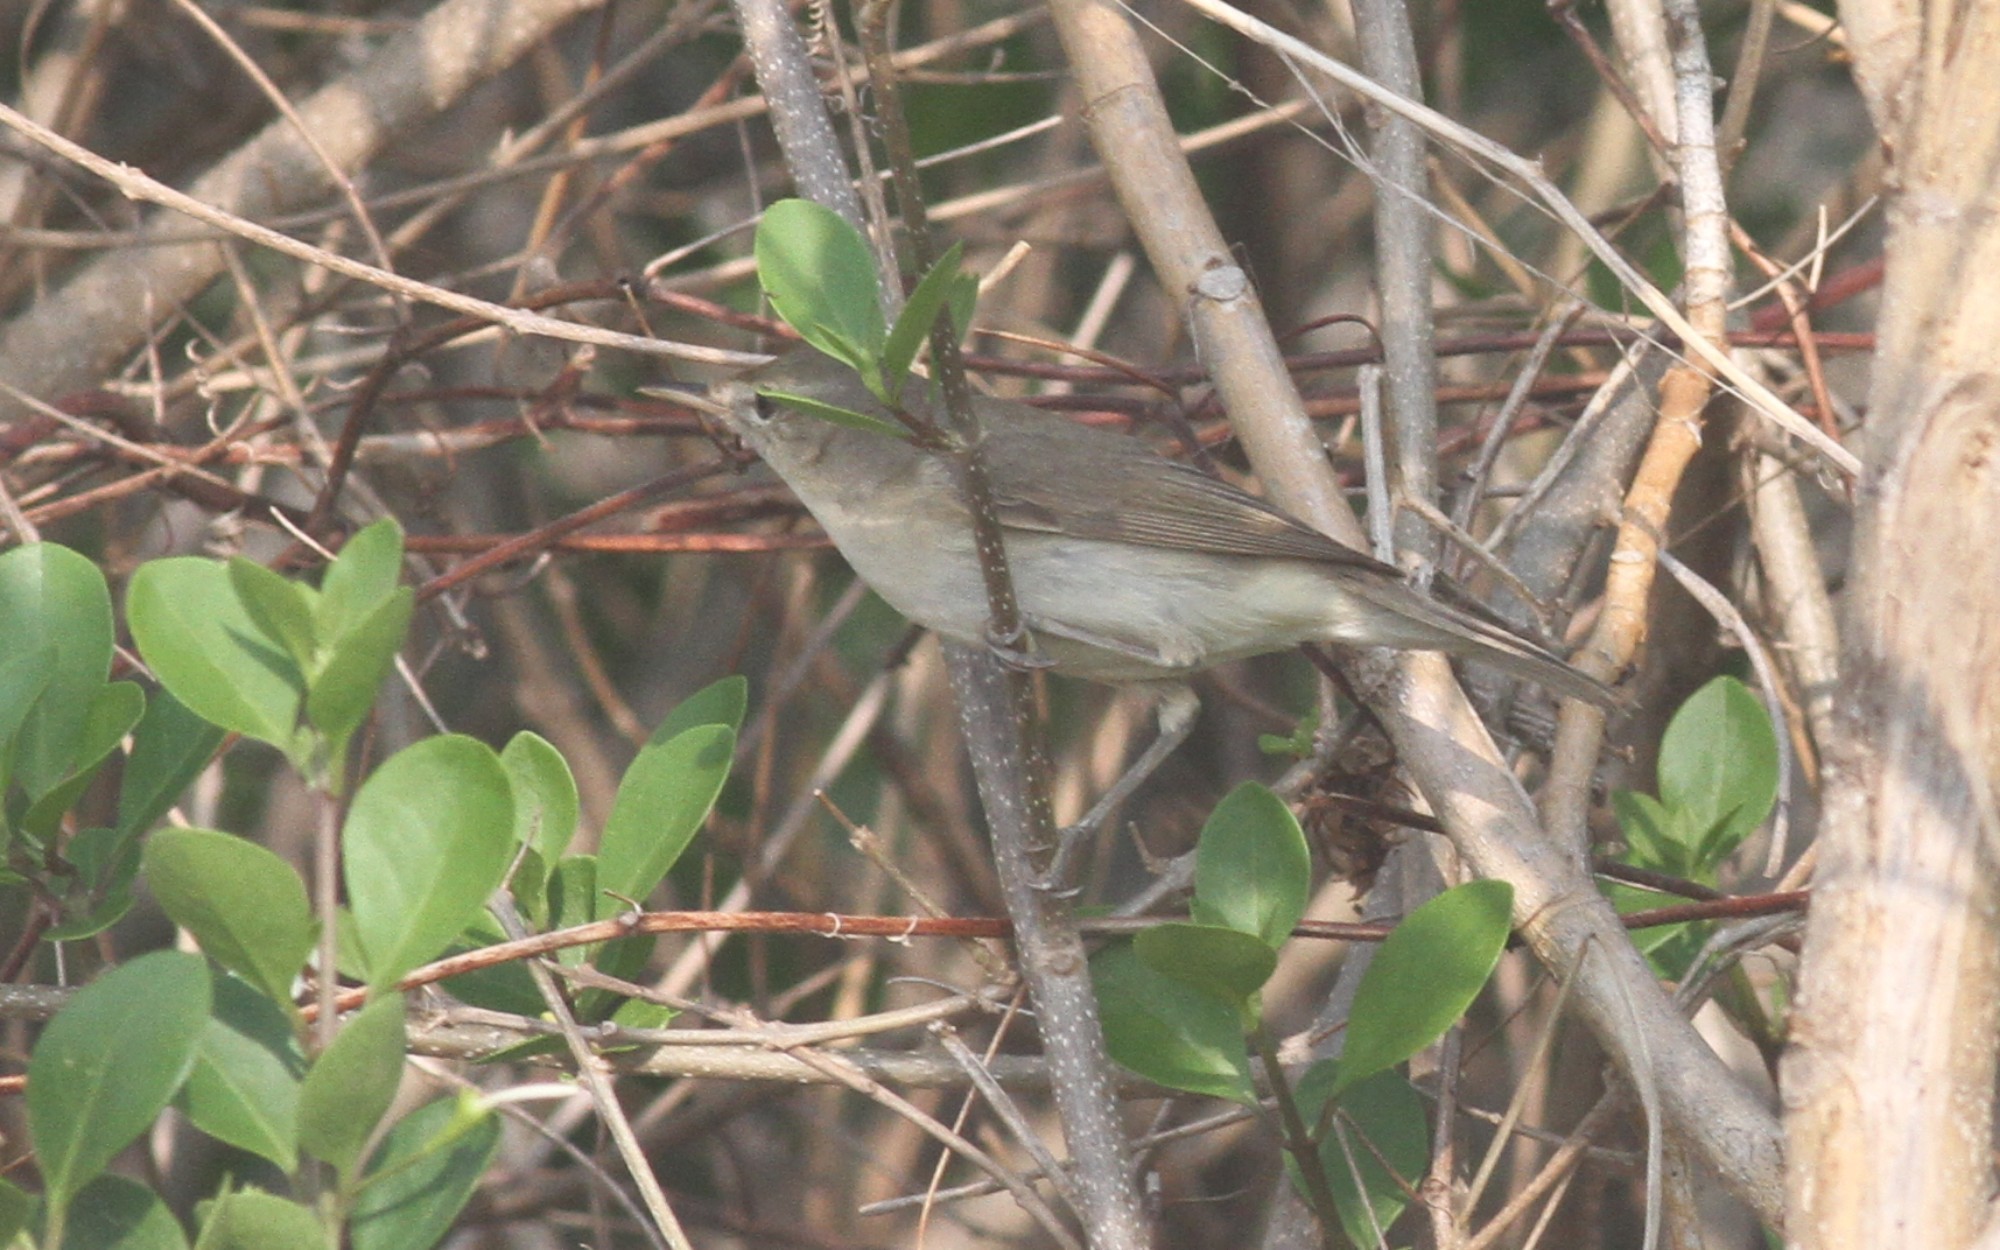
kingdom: Animalia
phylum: Chordata
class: Aves
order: Passeriformes
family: Acrocephalidae
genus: Acrocephalus
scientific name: Acrocephalus dumetorum
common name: Blyth's reed warbler
